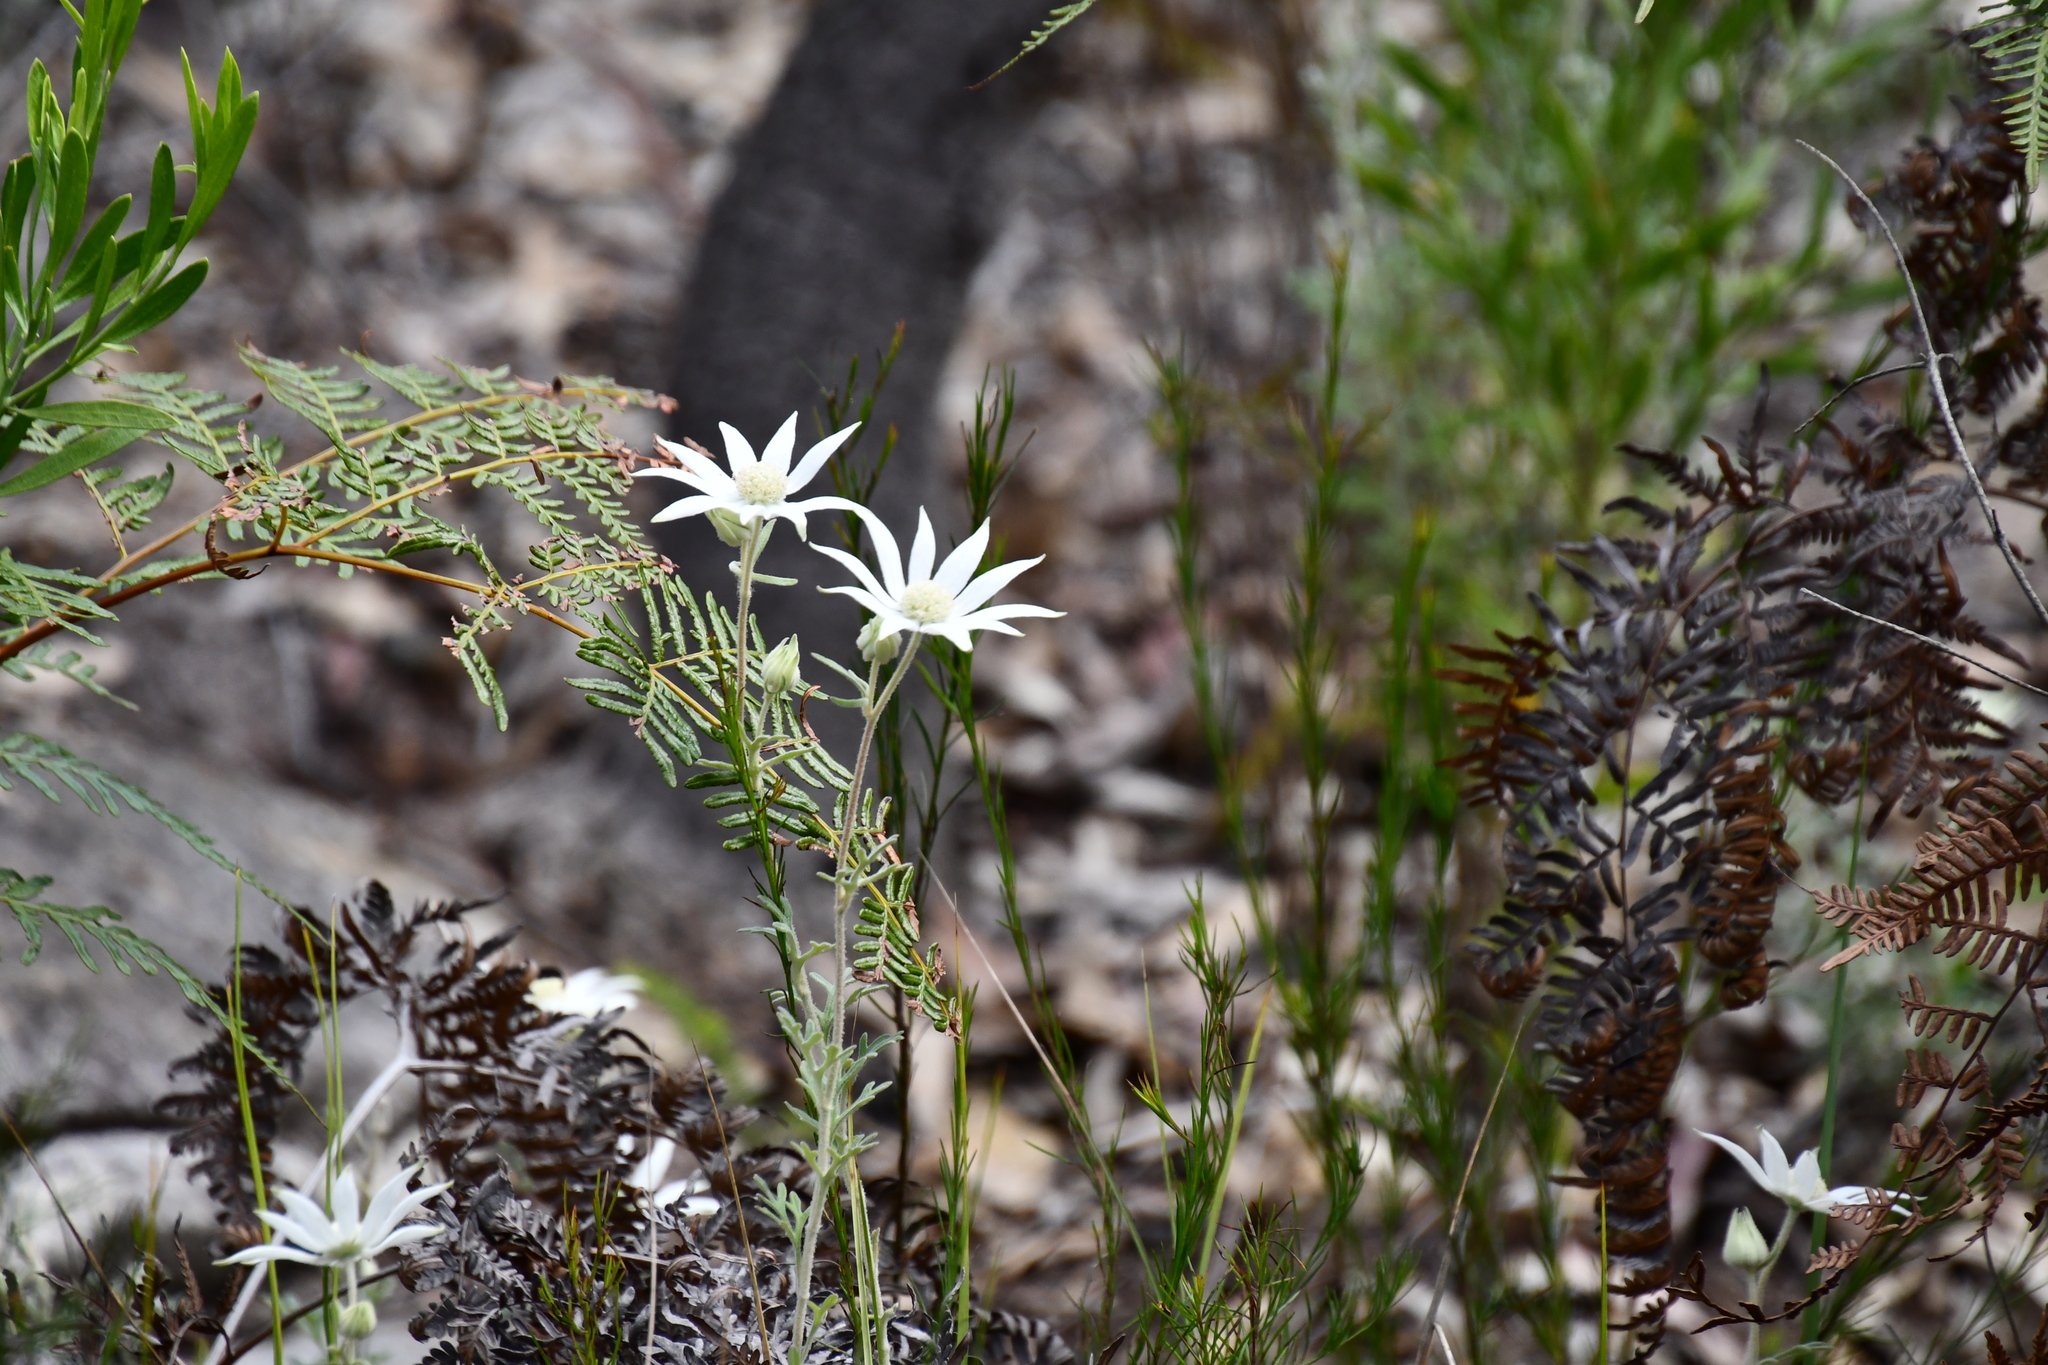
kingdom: Plantae
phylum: Tracheophyta
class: Magnoliopsida
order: Apiales
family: Apiaceae
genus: Actinotus
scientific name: Actinotus helianthi
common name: Flannel-flower
